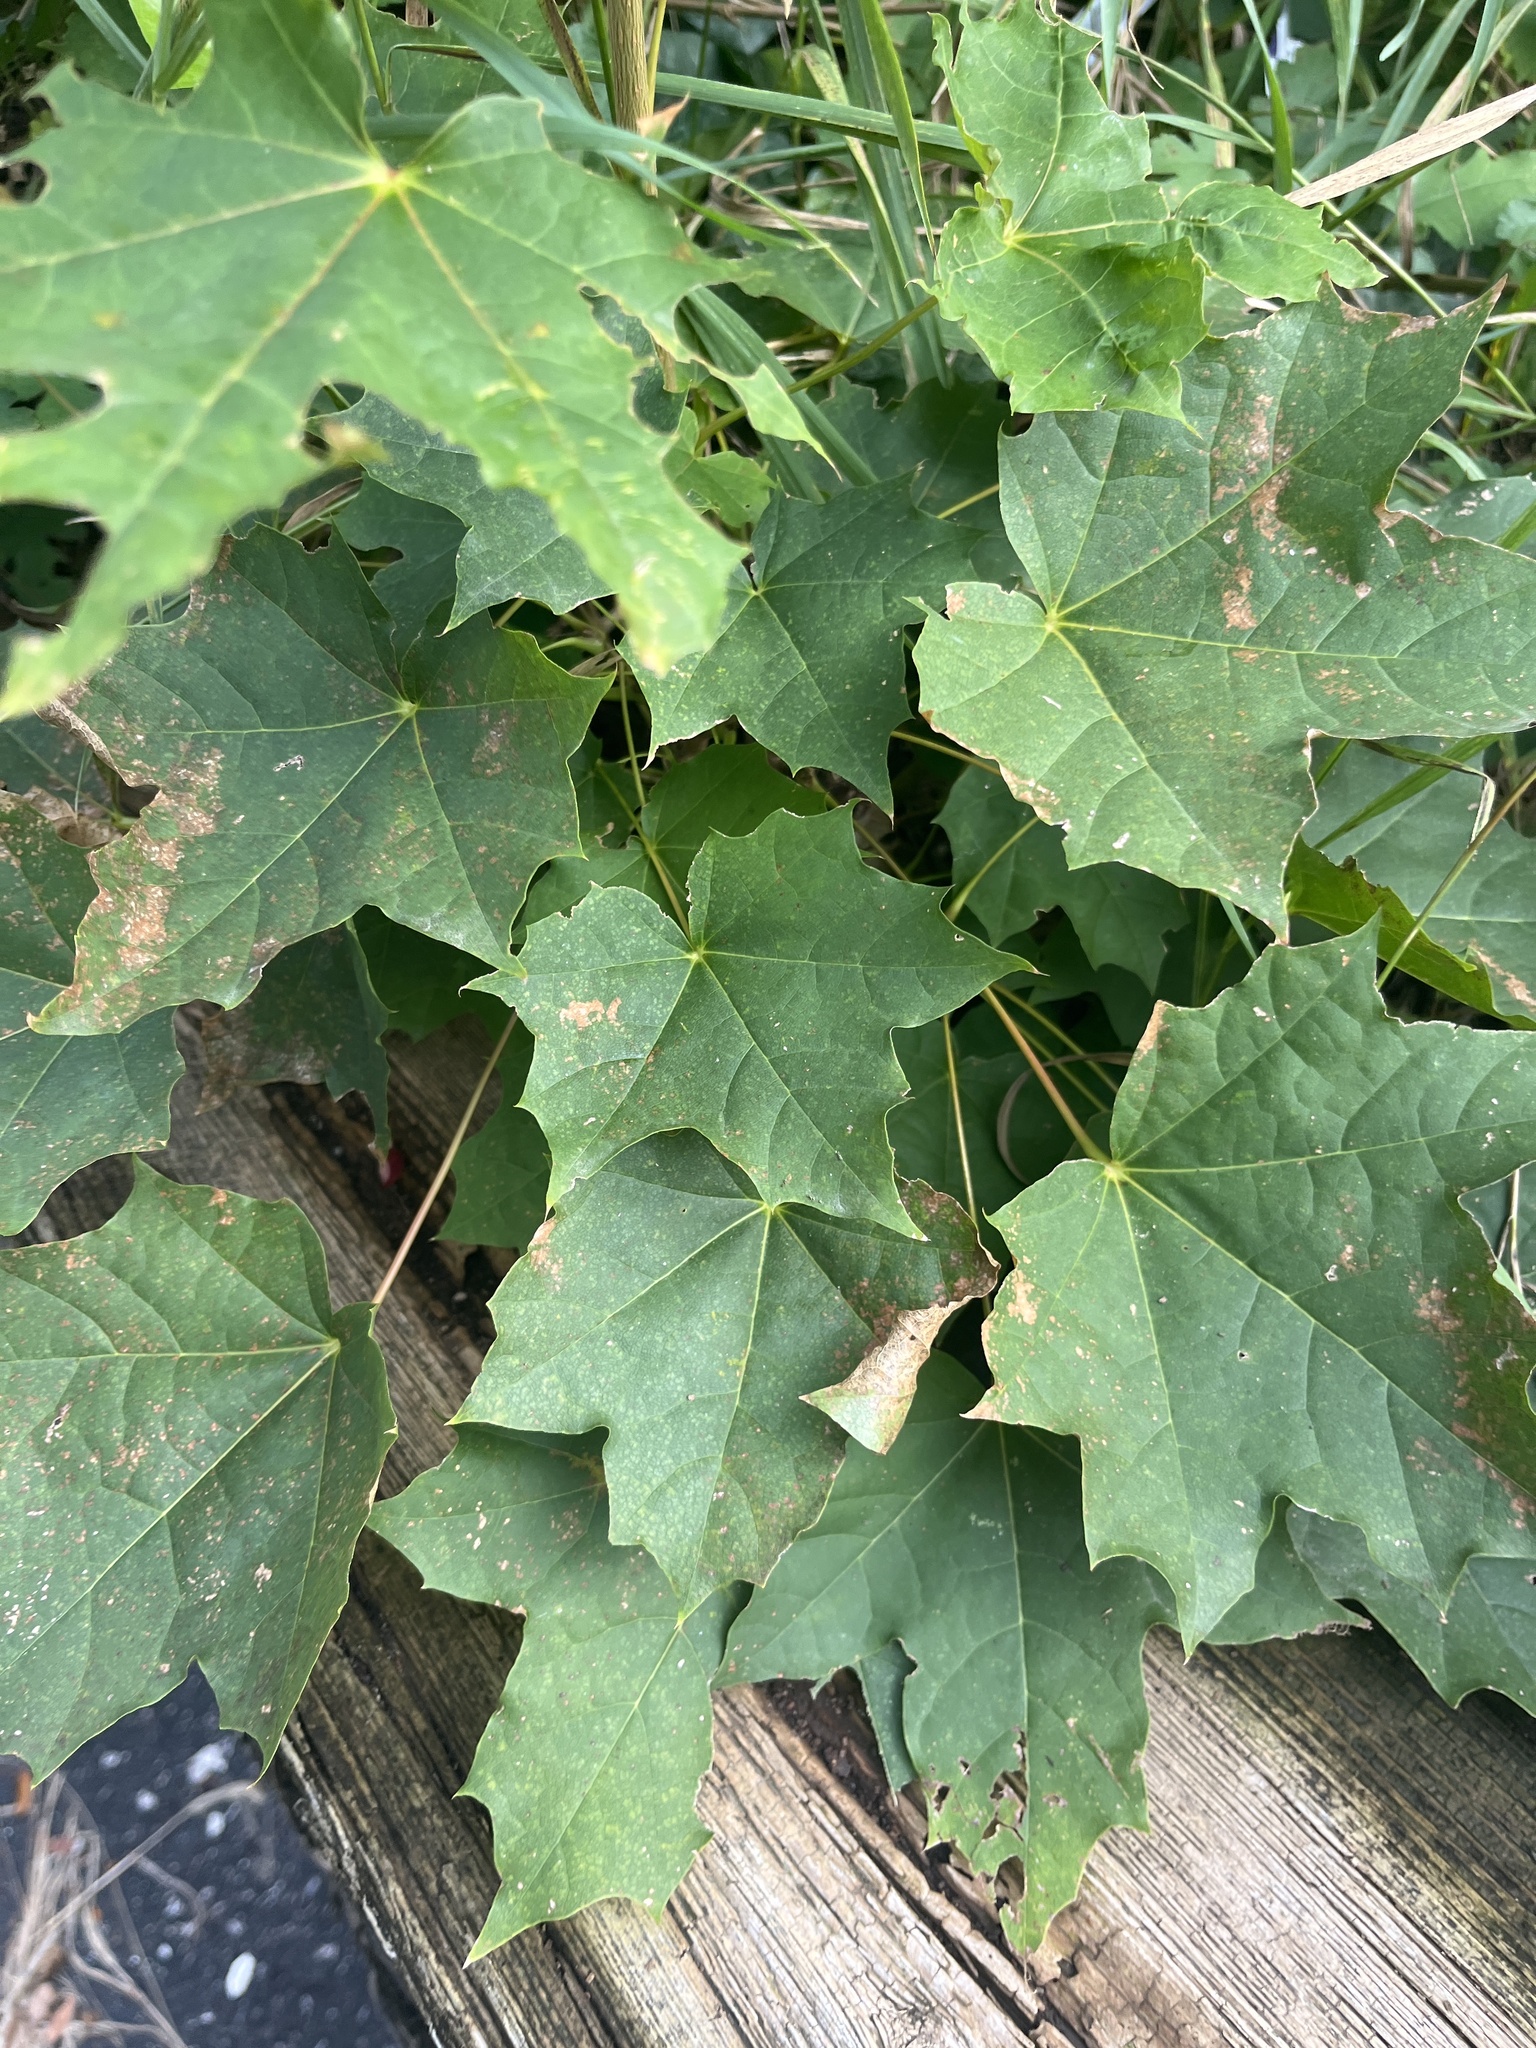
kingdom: Plantae
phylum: Tracheophyta
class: Magnoliopsida
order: Sapindales
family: Sapindaceae
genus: Acer
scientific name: Acer platanoides
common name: Norway maple
